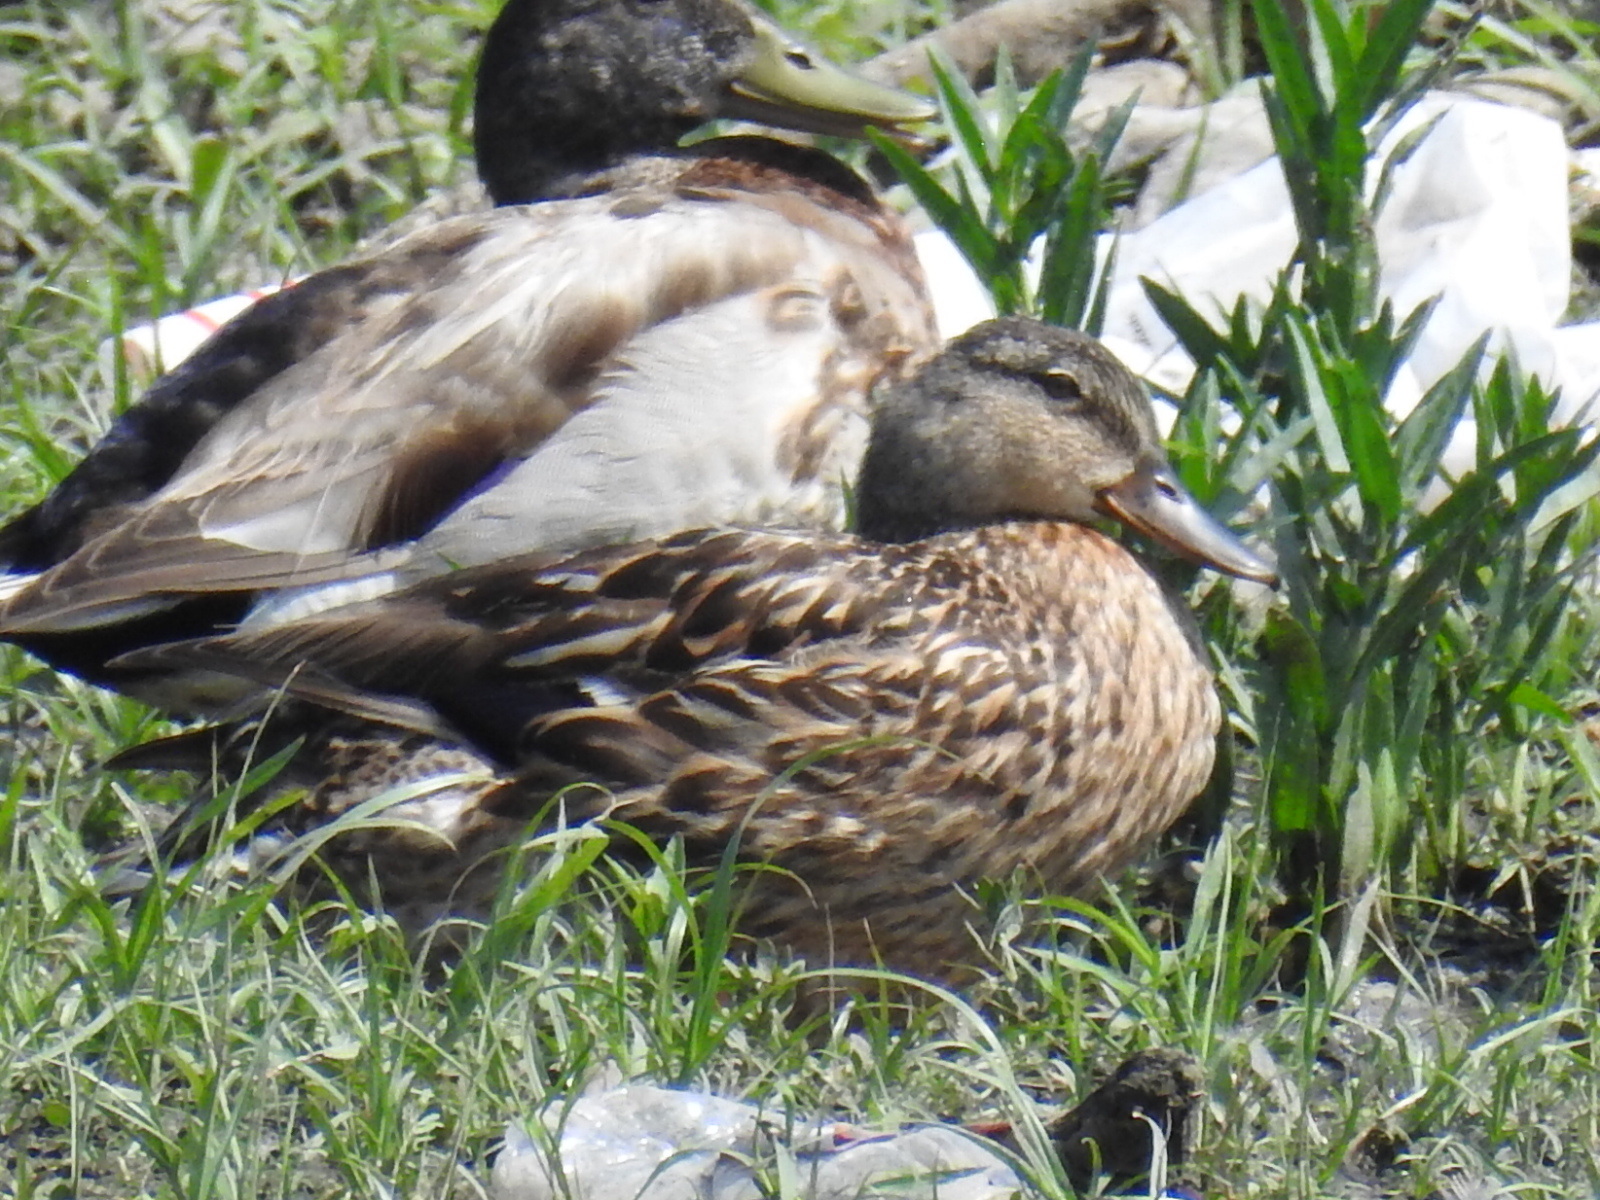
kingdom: Animalia
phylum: Chordata
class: Aves
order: Anseriformes
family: Anatidae
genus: Anas
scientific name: Anas platyrhynchos
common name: Mallard
